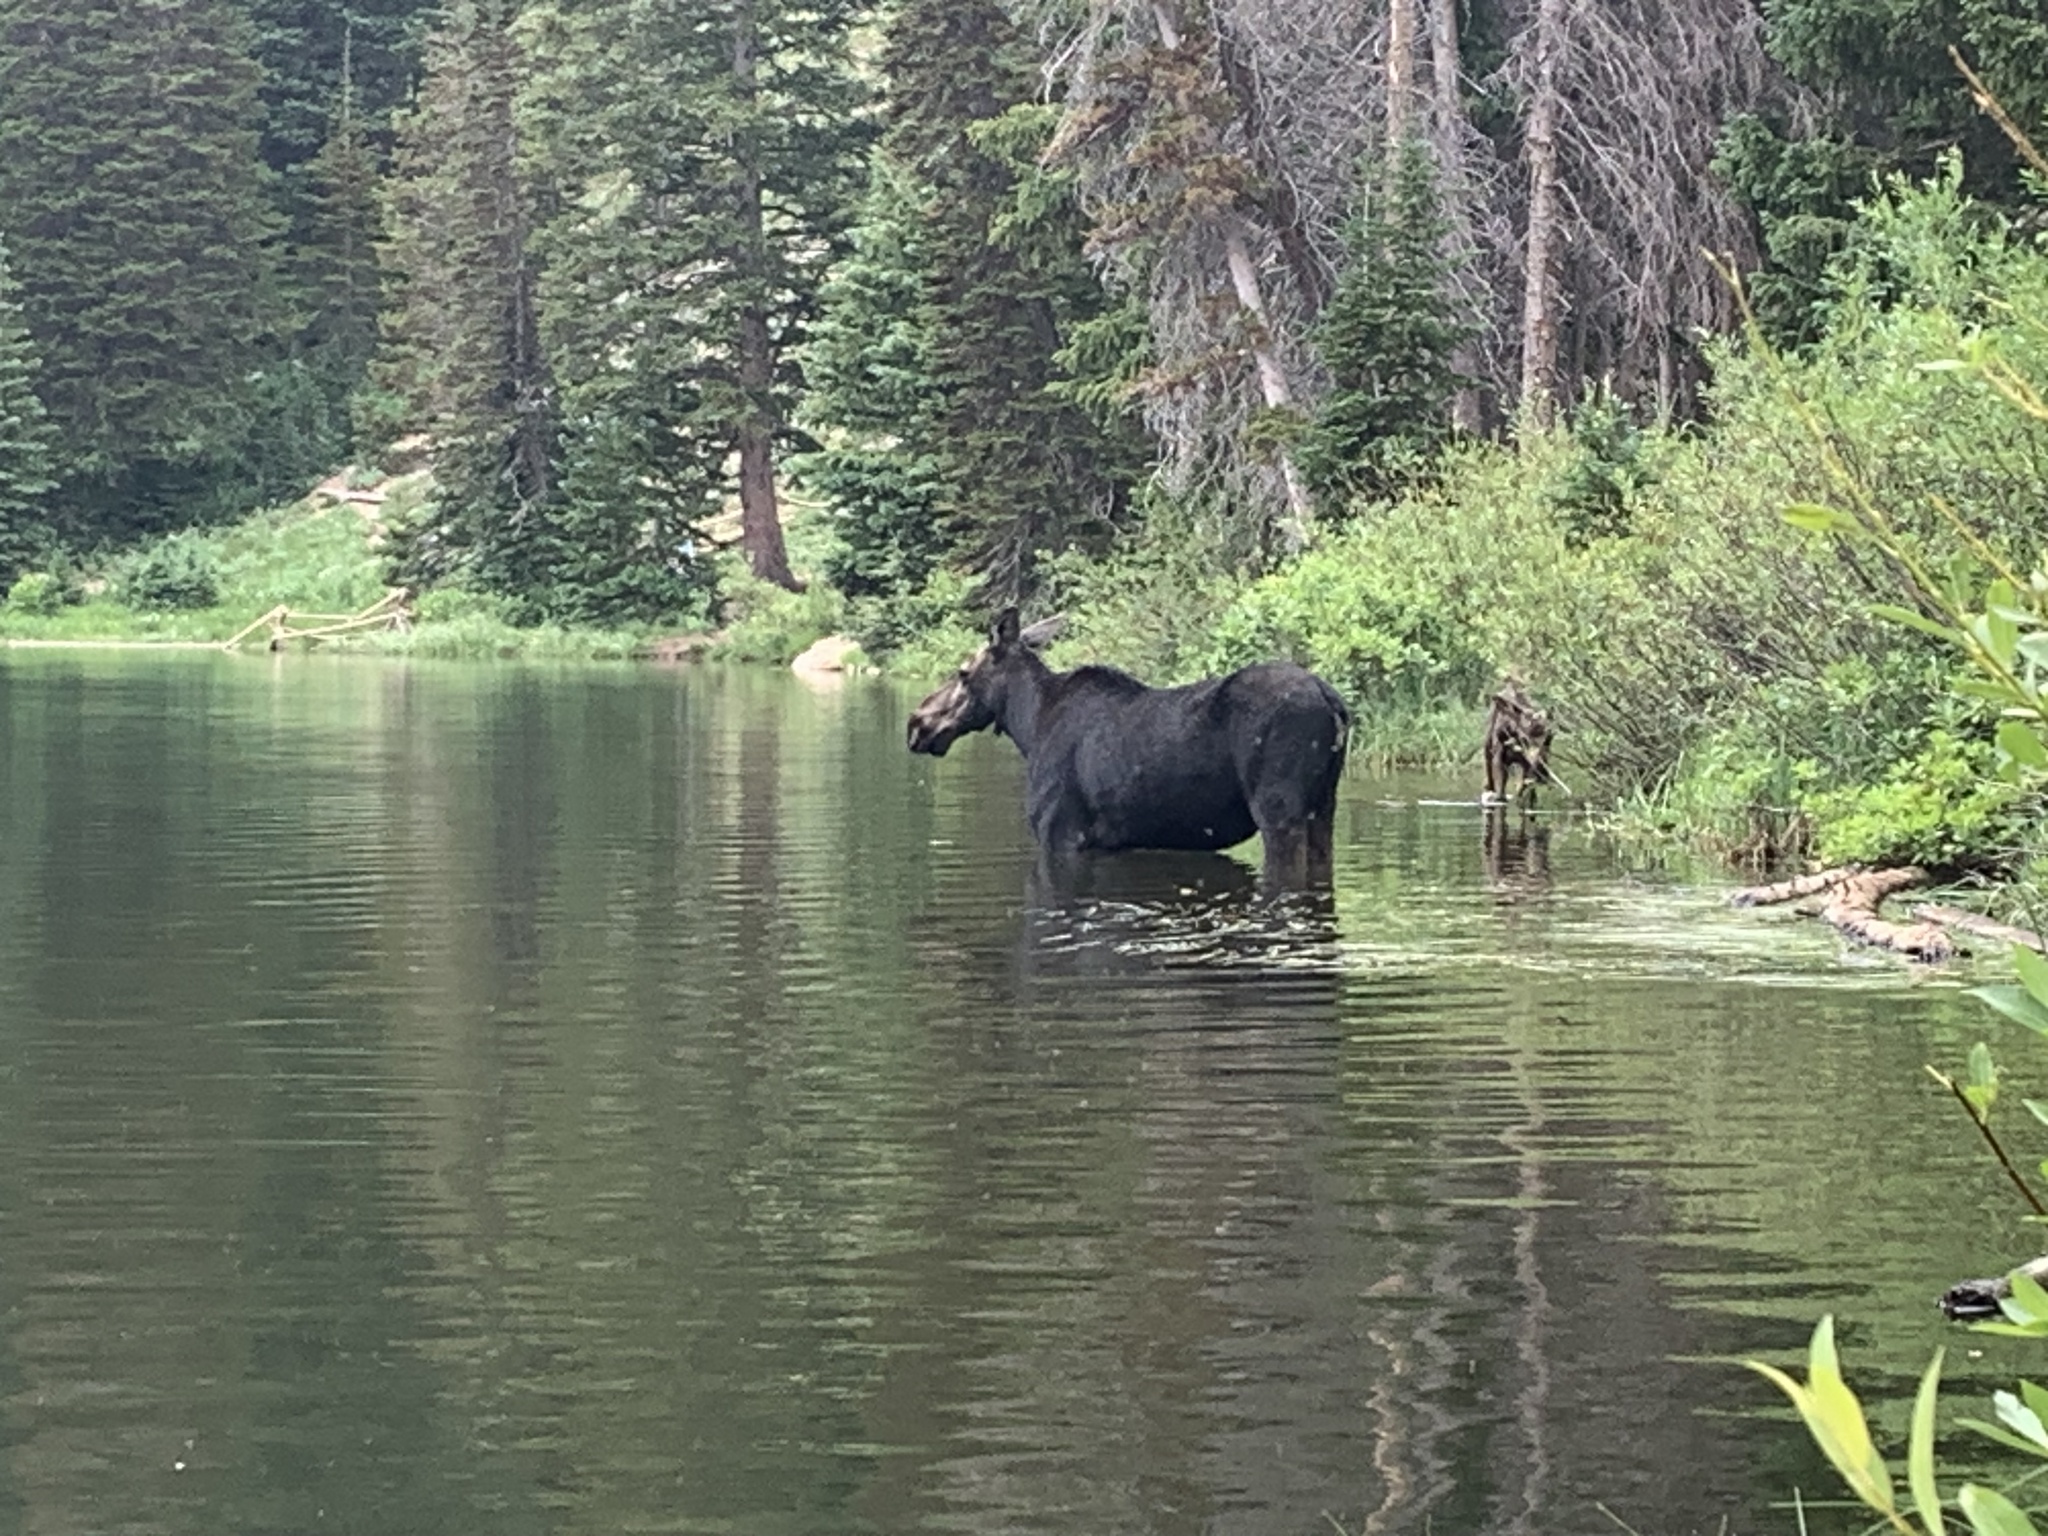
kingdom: Animalia
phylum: Chordata
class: Mammalia
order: Artiodactyla
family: Cervidae
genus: Alces
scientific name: Alces alces
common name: Moose
